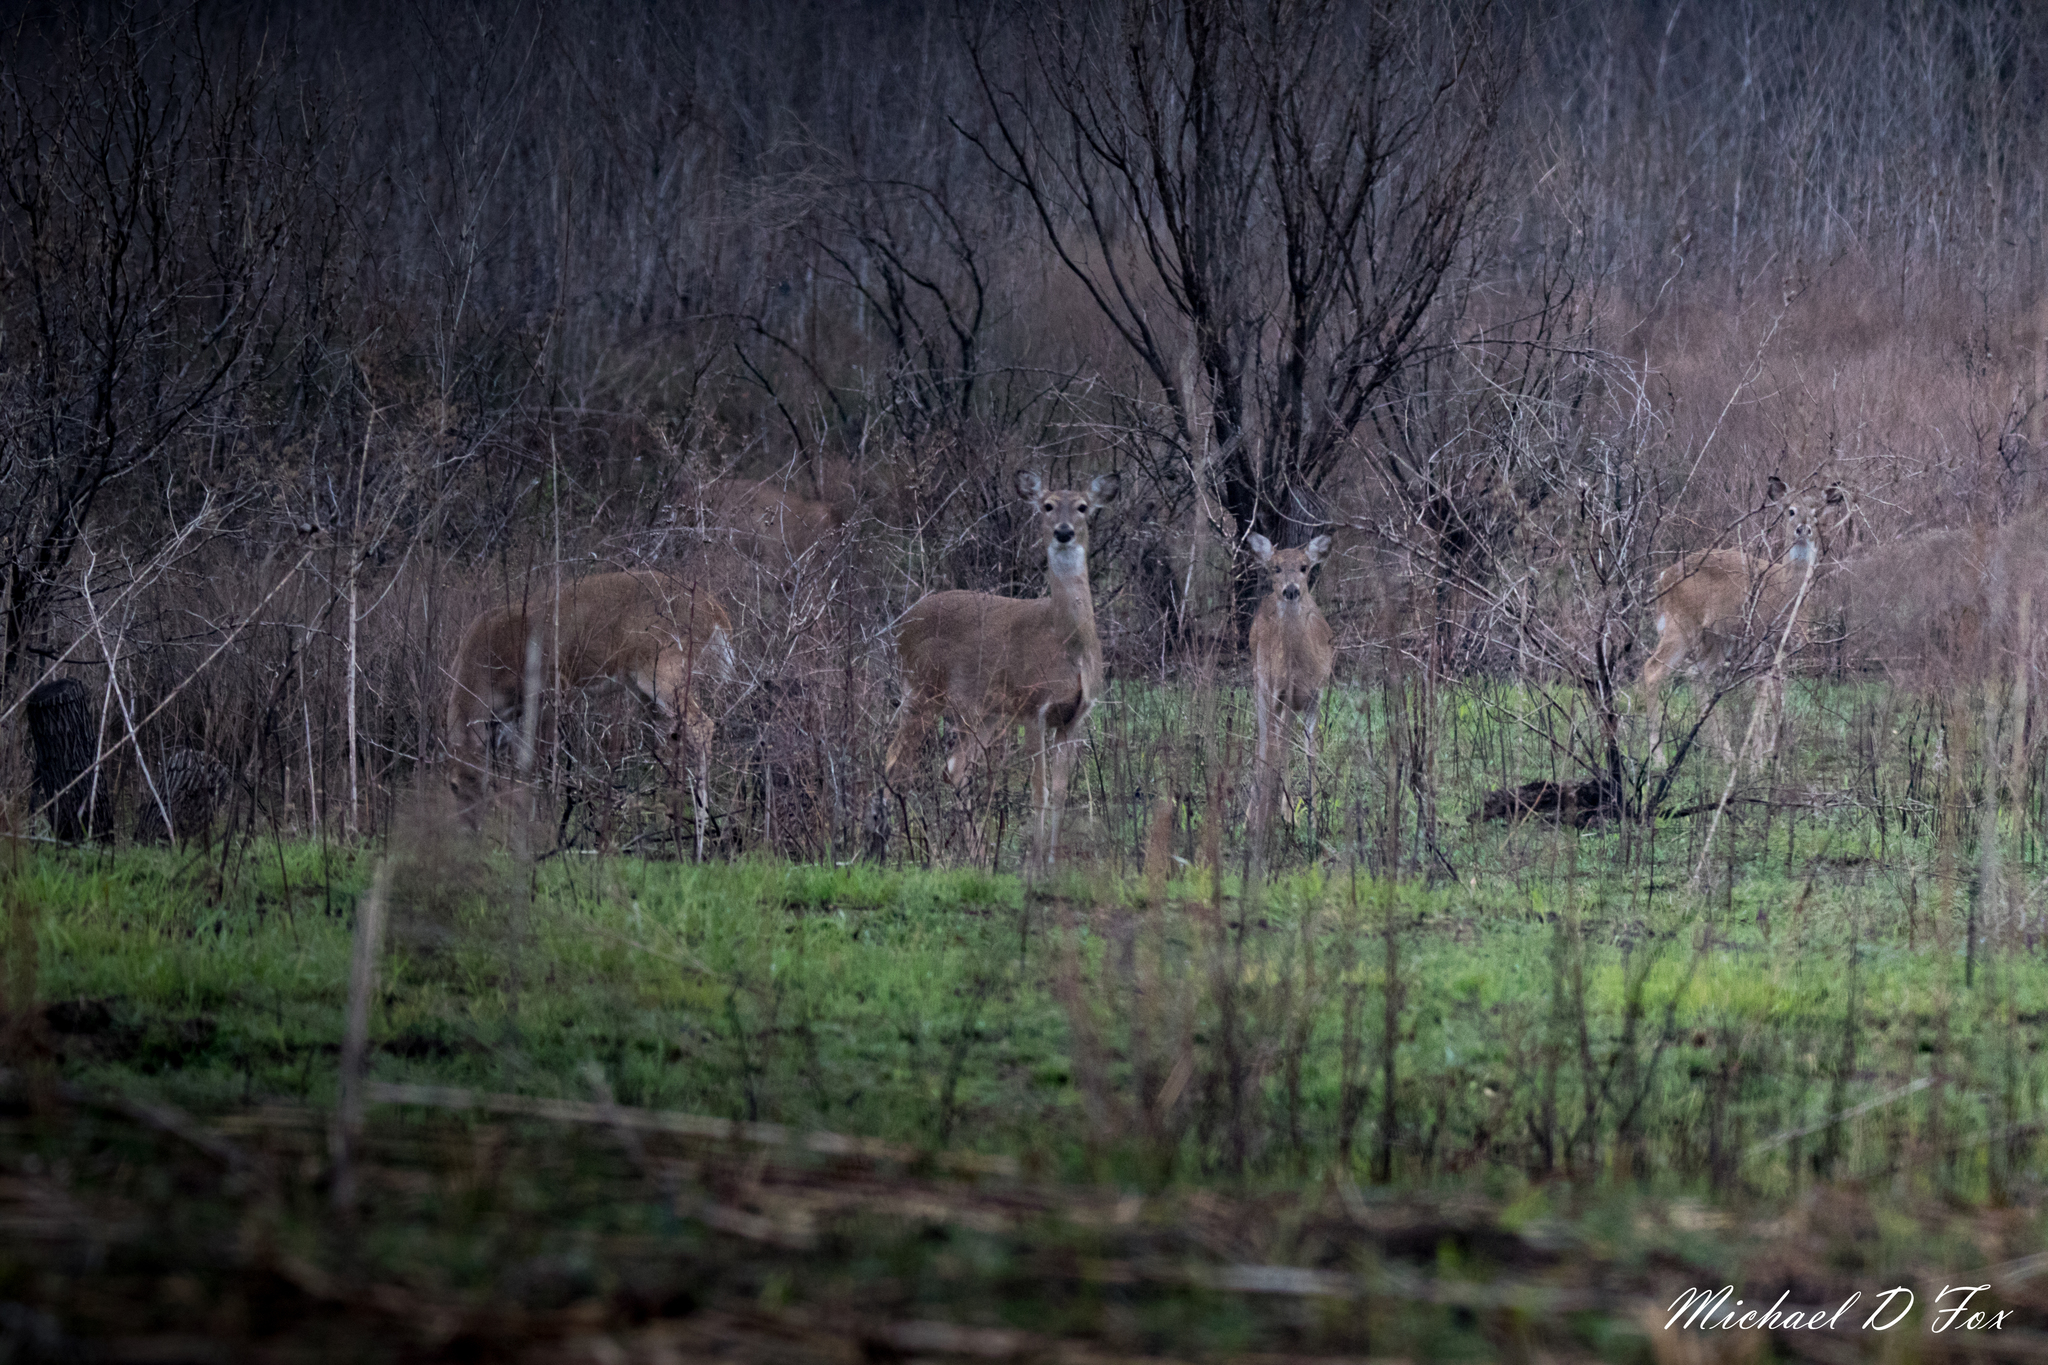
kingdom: Animalia
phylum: Chordata
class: Mammalia
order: Artiodactyla
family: Cervidae
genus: Odocoileus
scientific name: Odocoileus virginianus
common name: White-tailed deer
